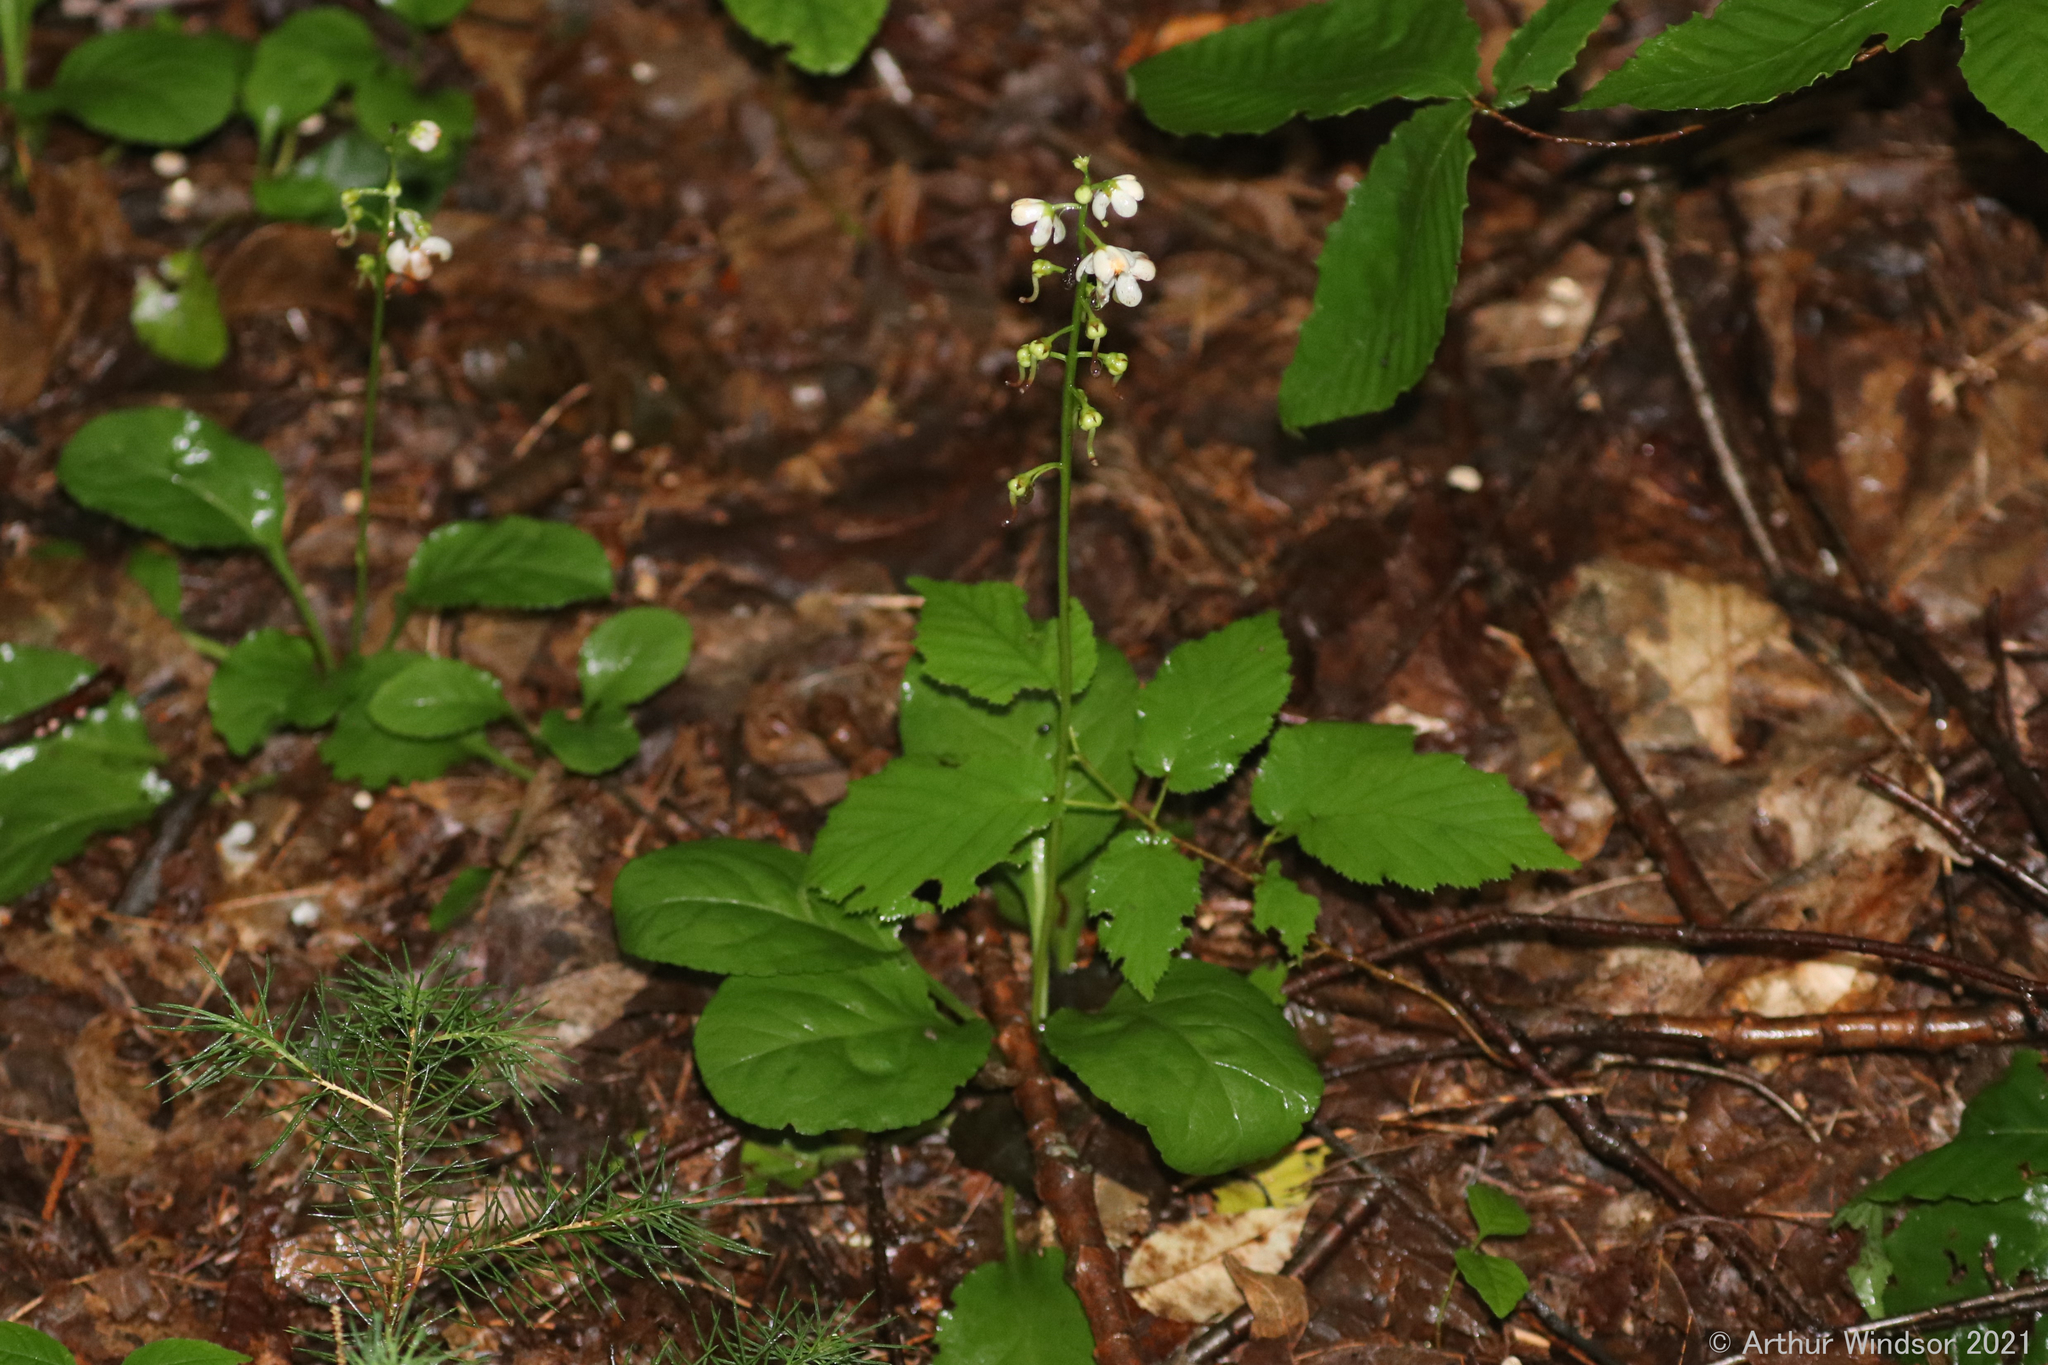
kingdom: Plantae
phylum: Tracheophyta
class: Magnoliopsida
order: Ericales
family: Ericaceae
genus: Pyrola
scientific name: Pyrola elliptica
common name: Shinleaf
